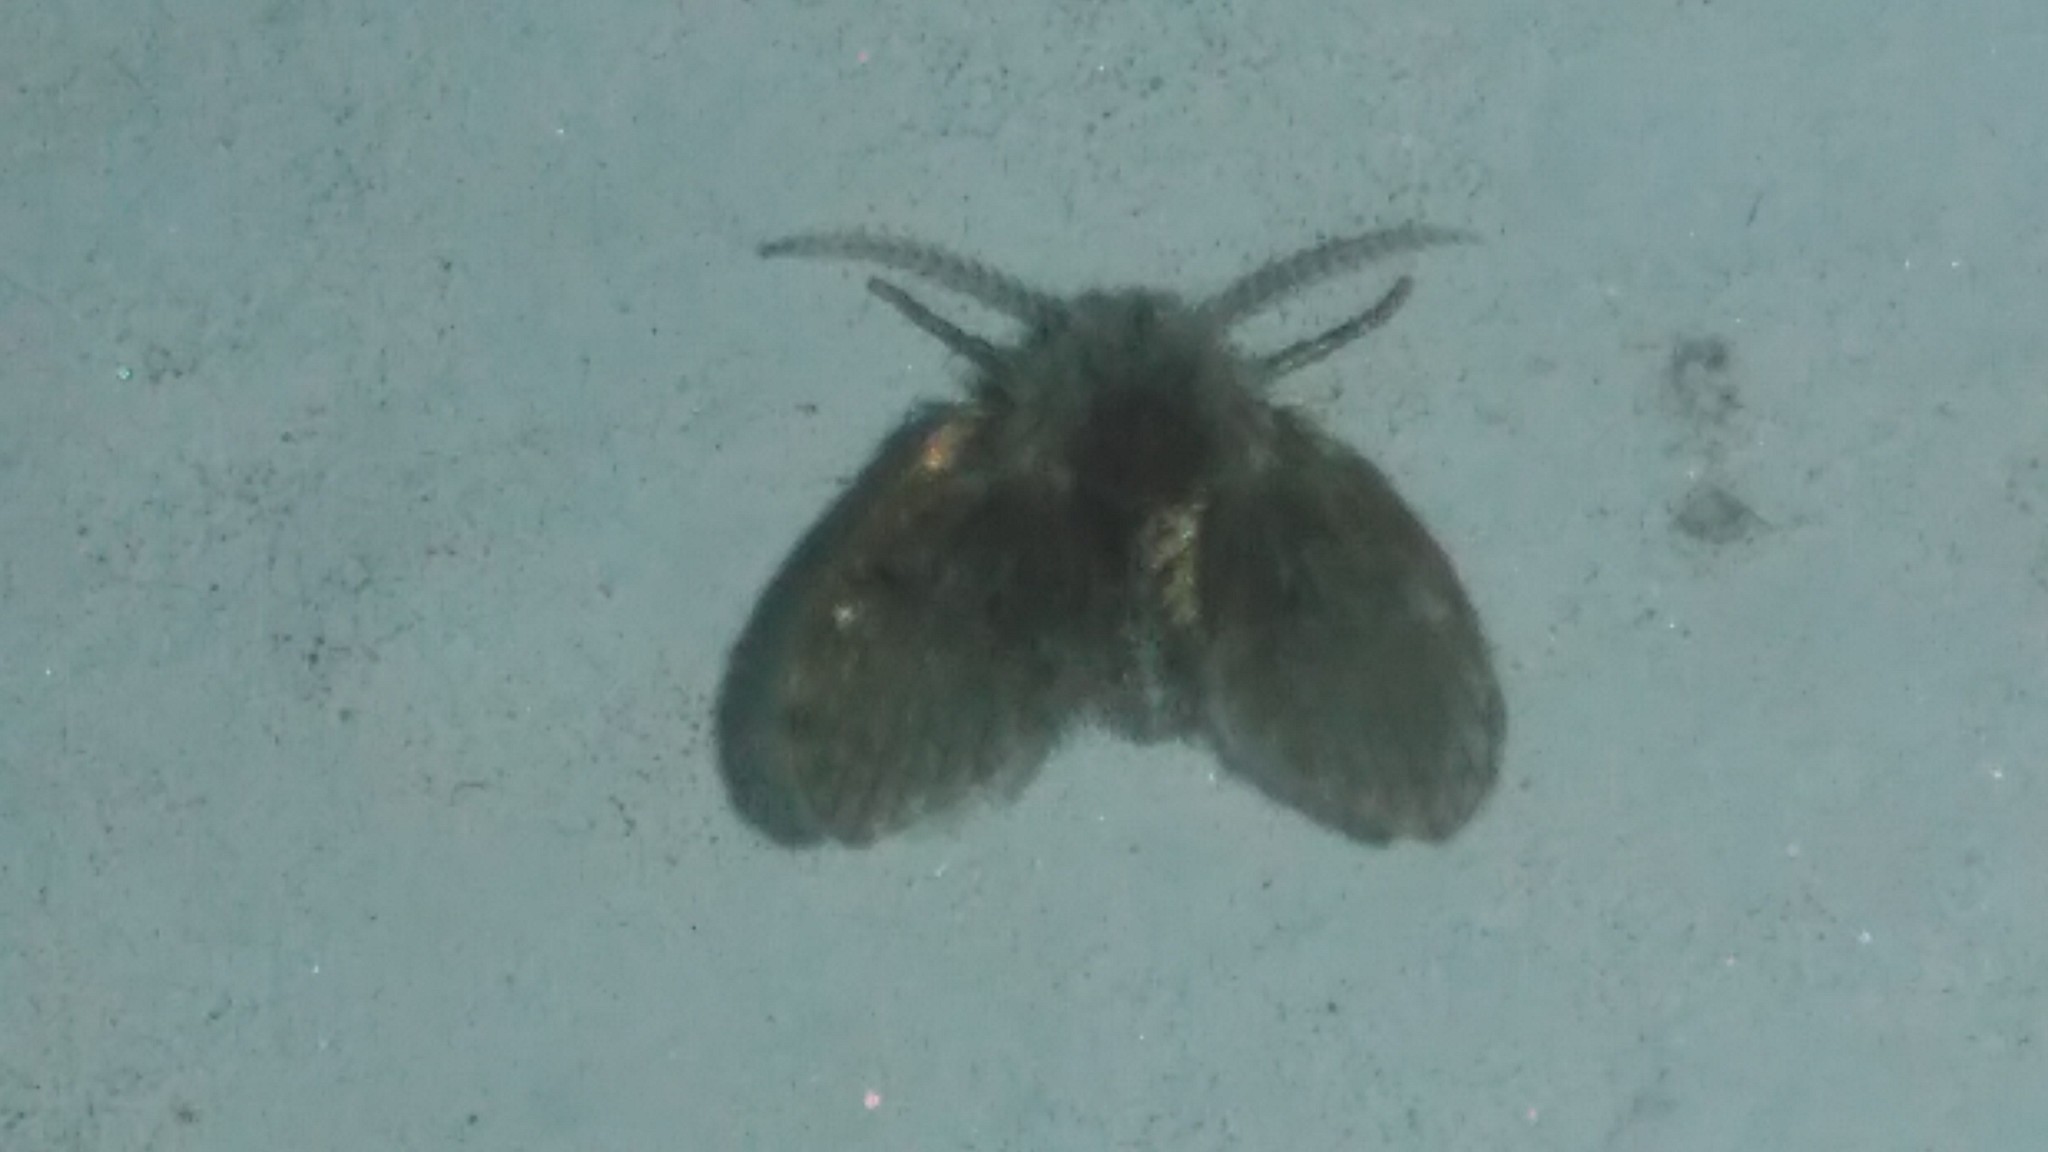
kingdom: Animalia
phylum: Arthropoda
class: Insecta
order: Diptera
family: Psychodidae
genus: Clogmia
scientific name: Clogmia albipunctatus
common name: White-spotted moth fly
